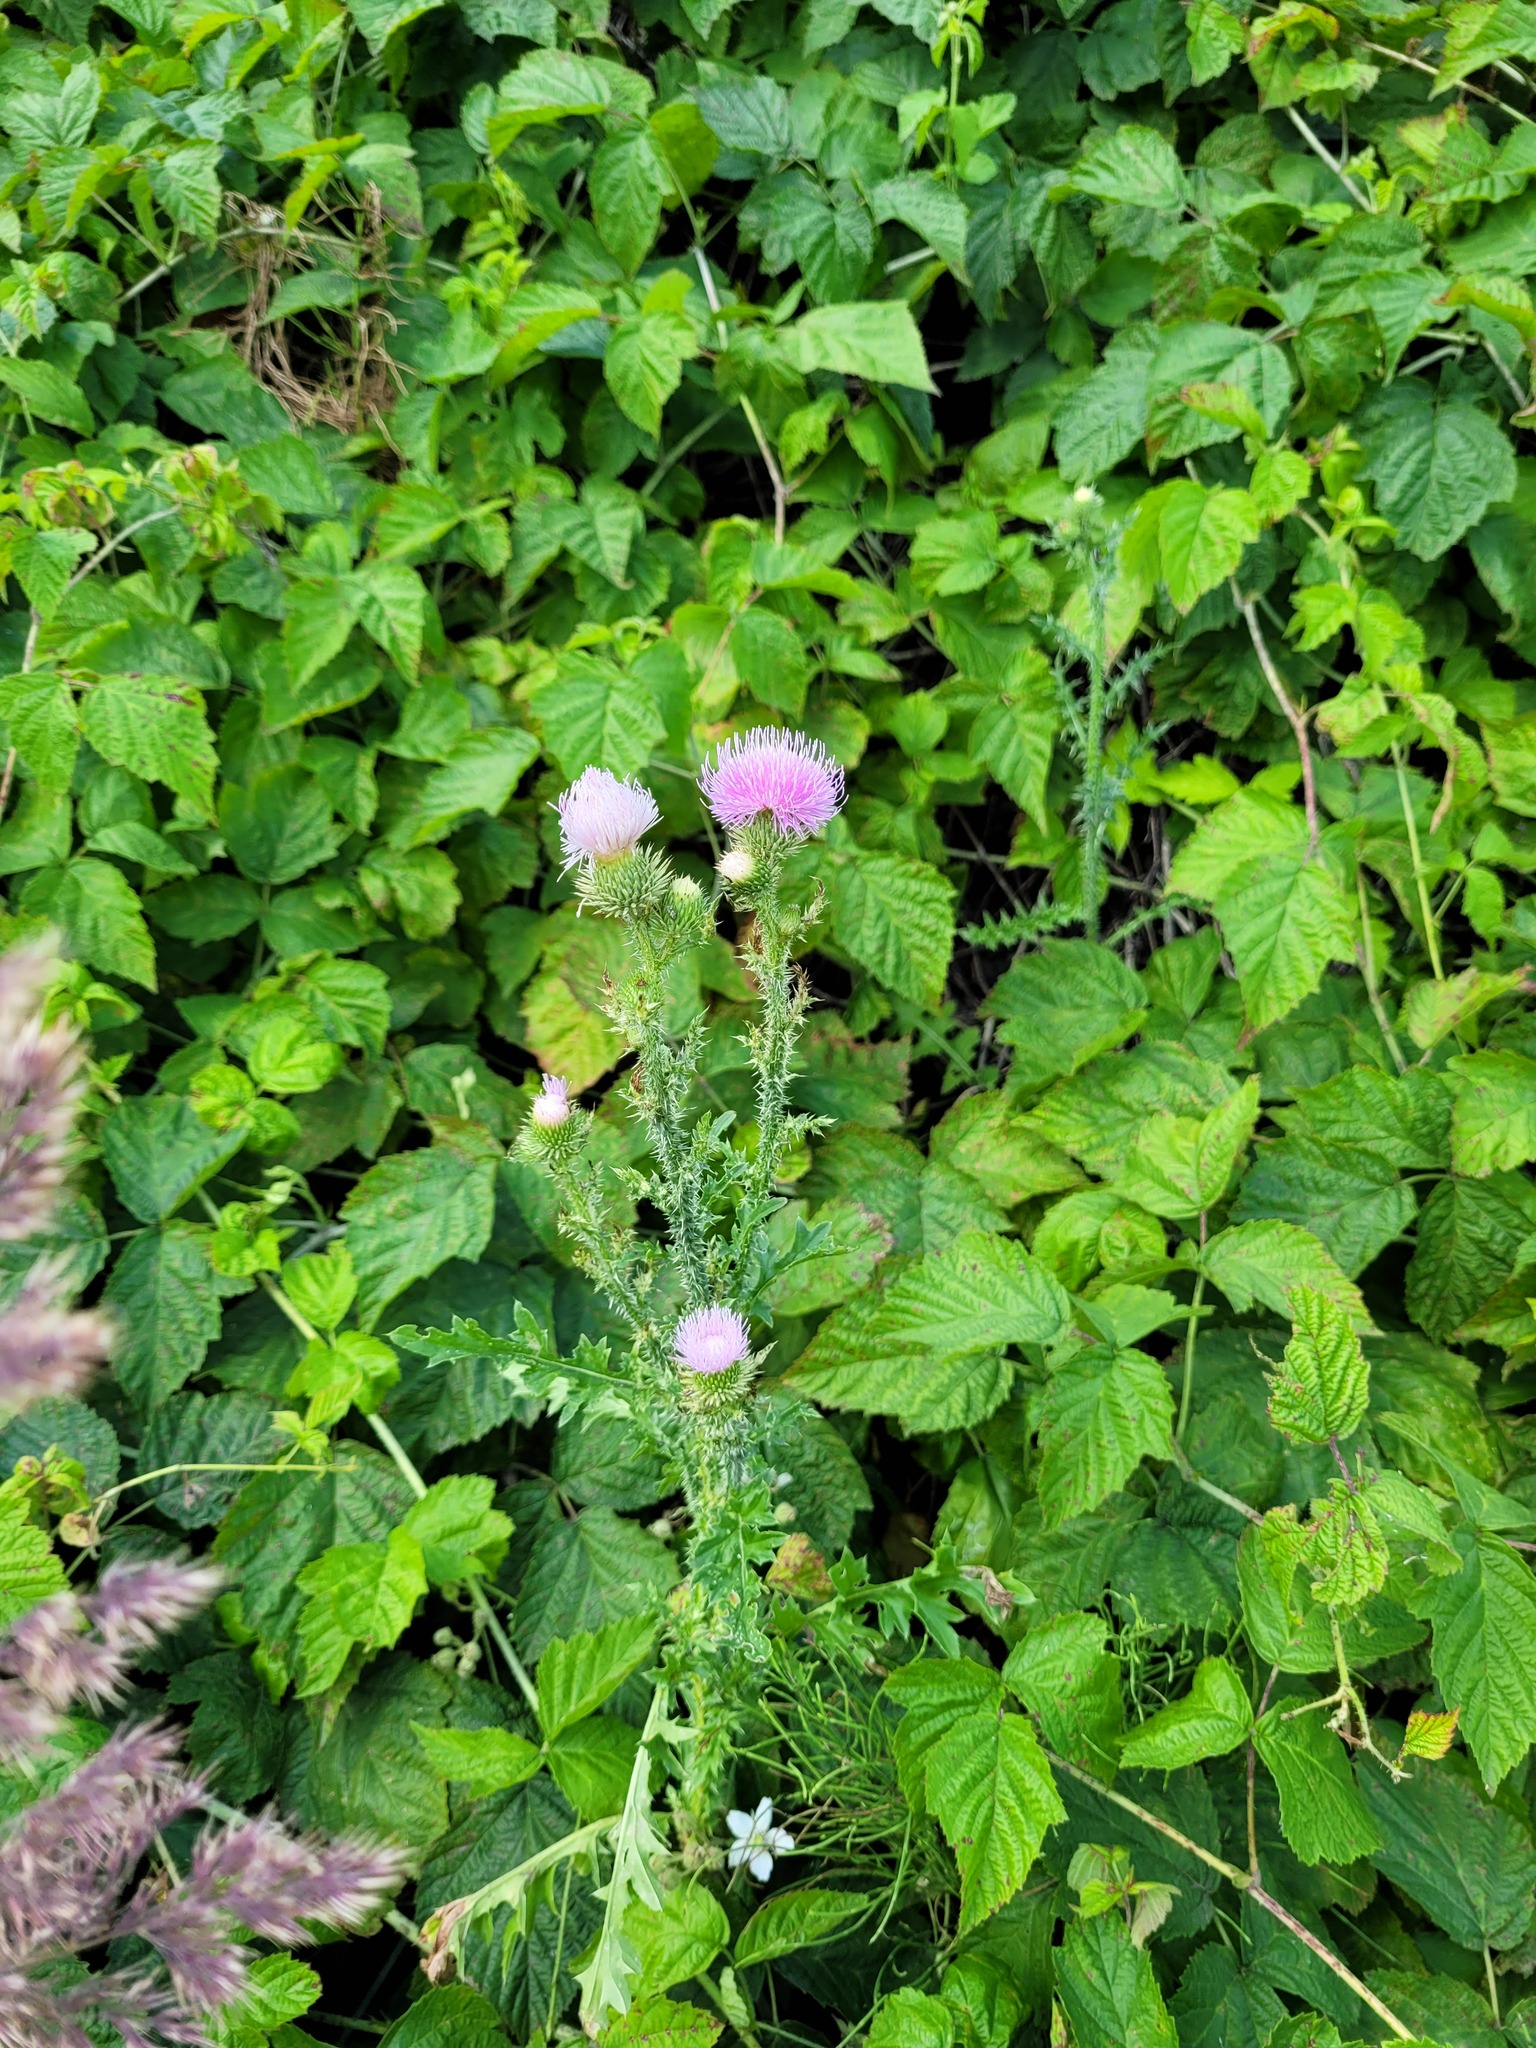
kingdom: Plantae
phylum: Tracheophyta
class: Magnoliopsida
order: Asterales
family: Asteraceae
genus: Carduus
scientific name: Carduus acanthoides
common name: Plumeless thistle
